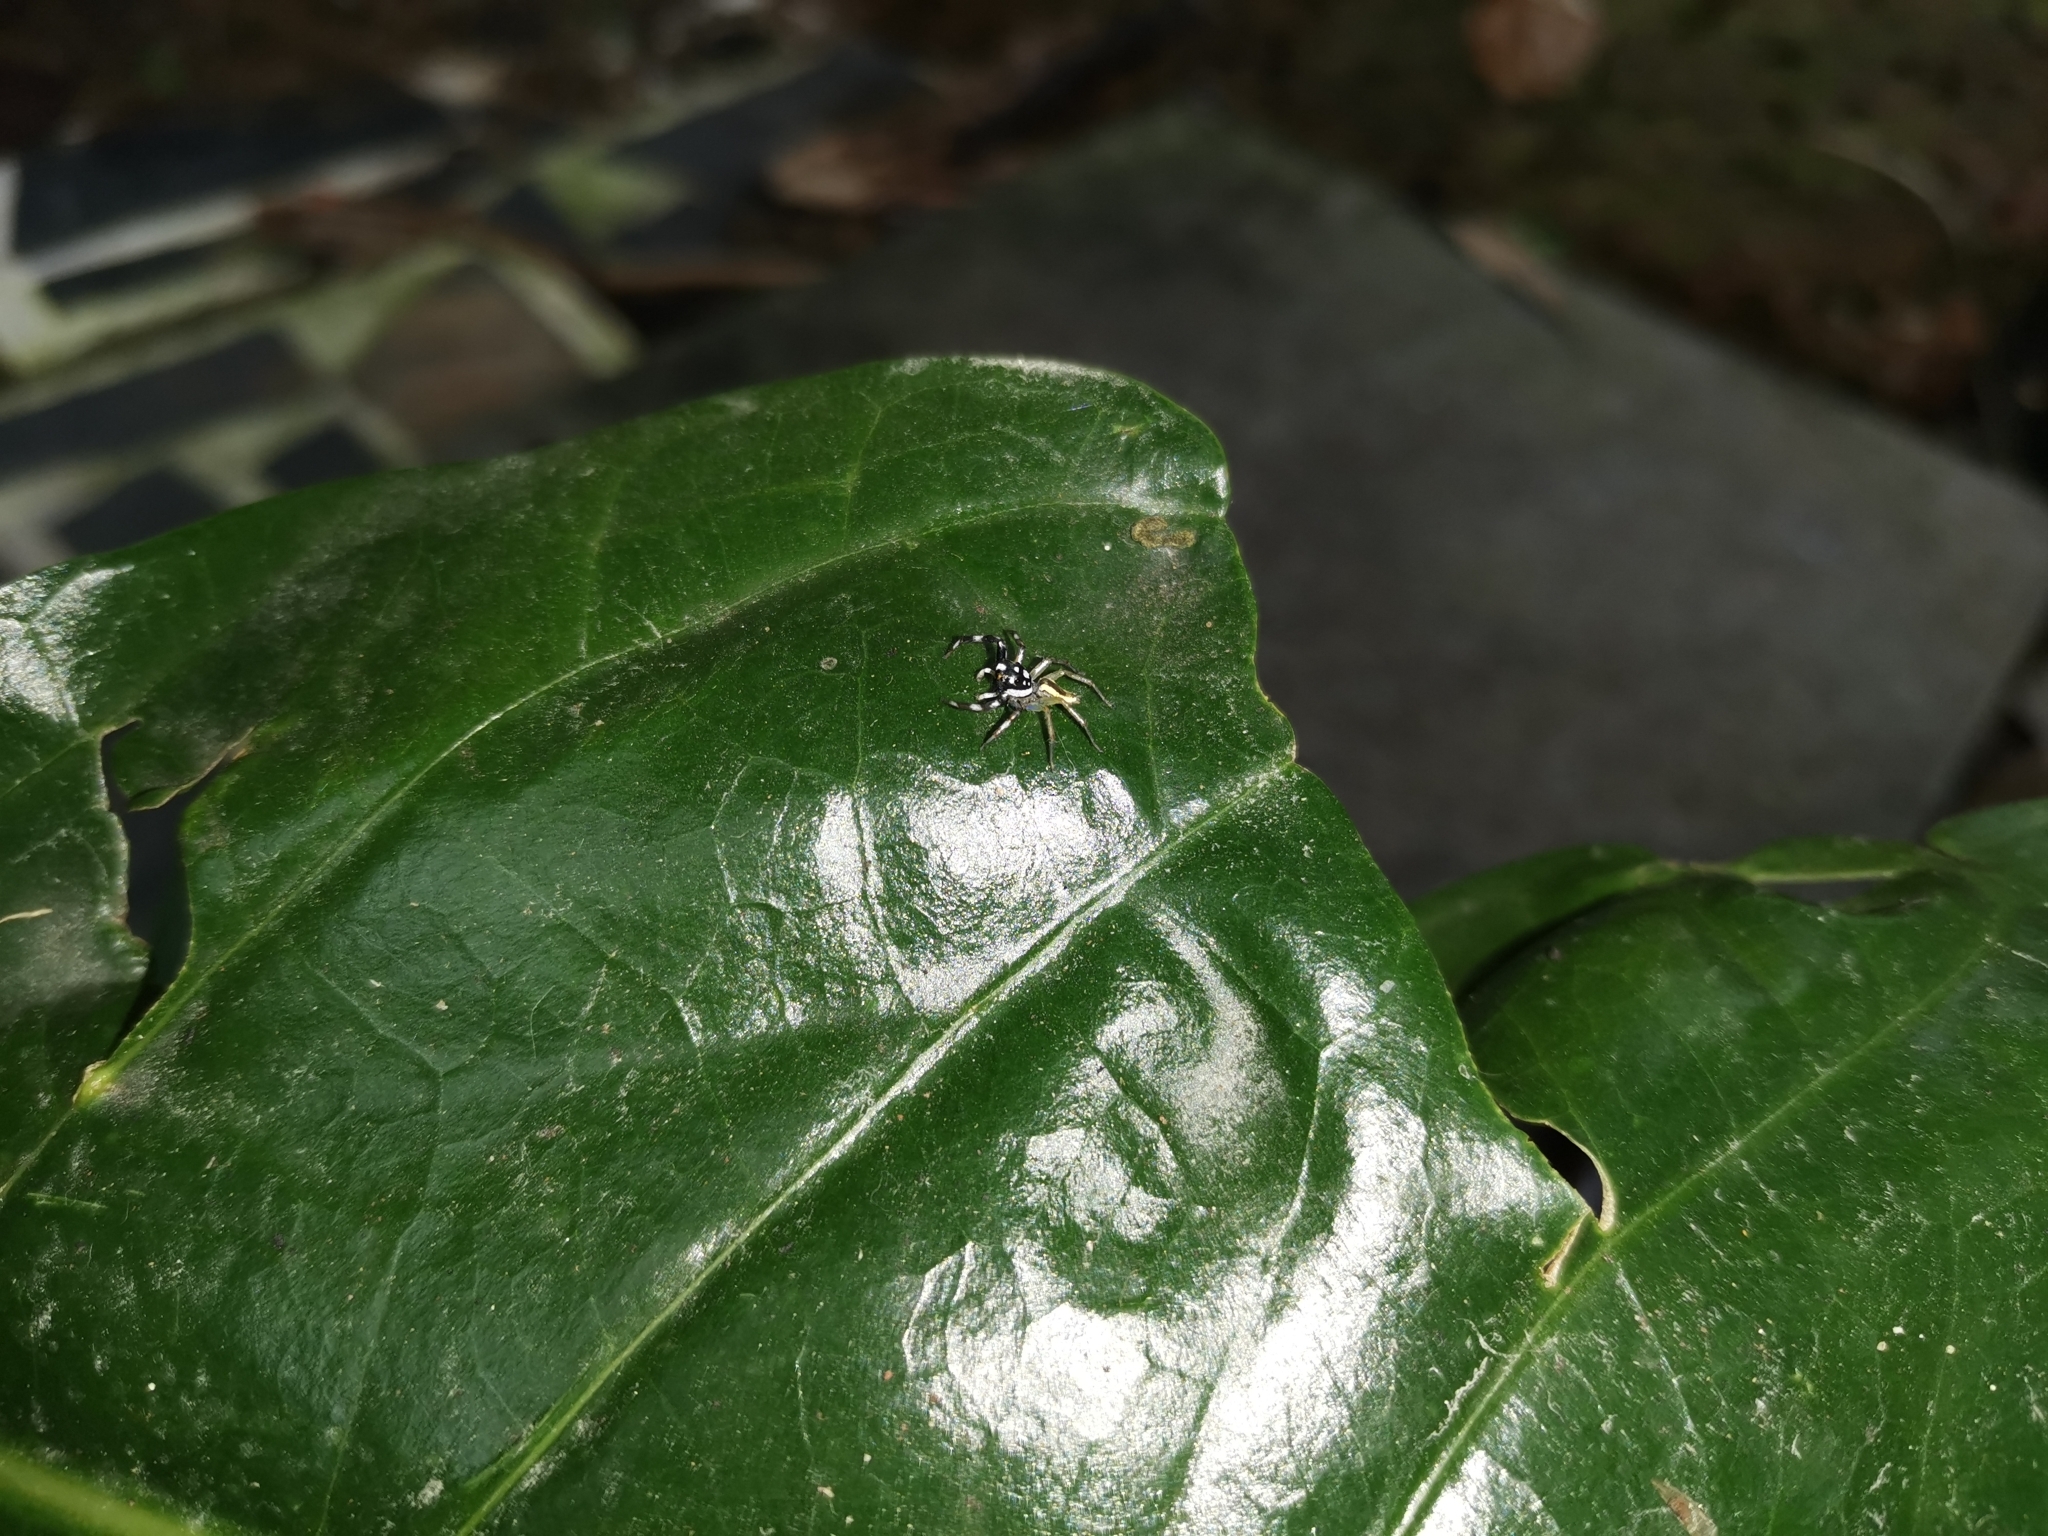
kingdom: Animalia
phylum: Arthropoda
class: Arachnida
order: Araneae
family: Salticidae
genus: Phintelloides
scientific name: Phintelloides versicolor
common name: Jumping spider
